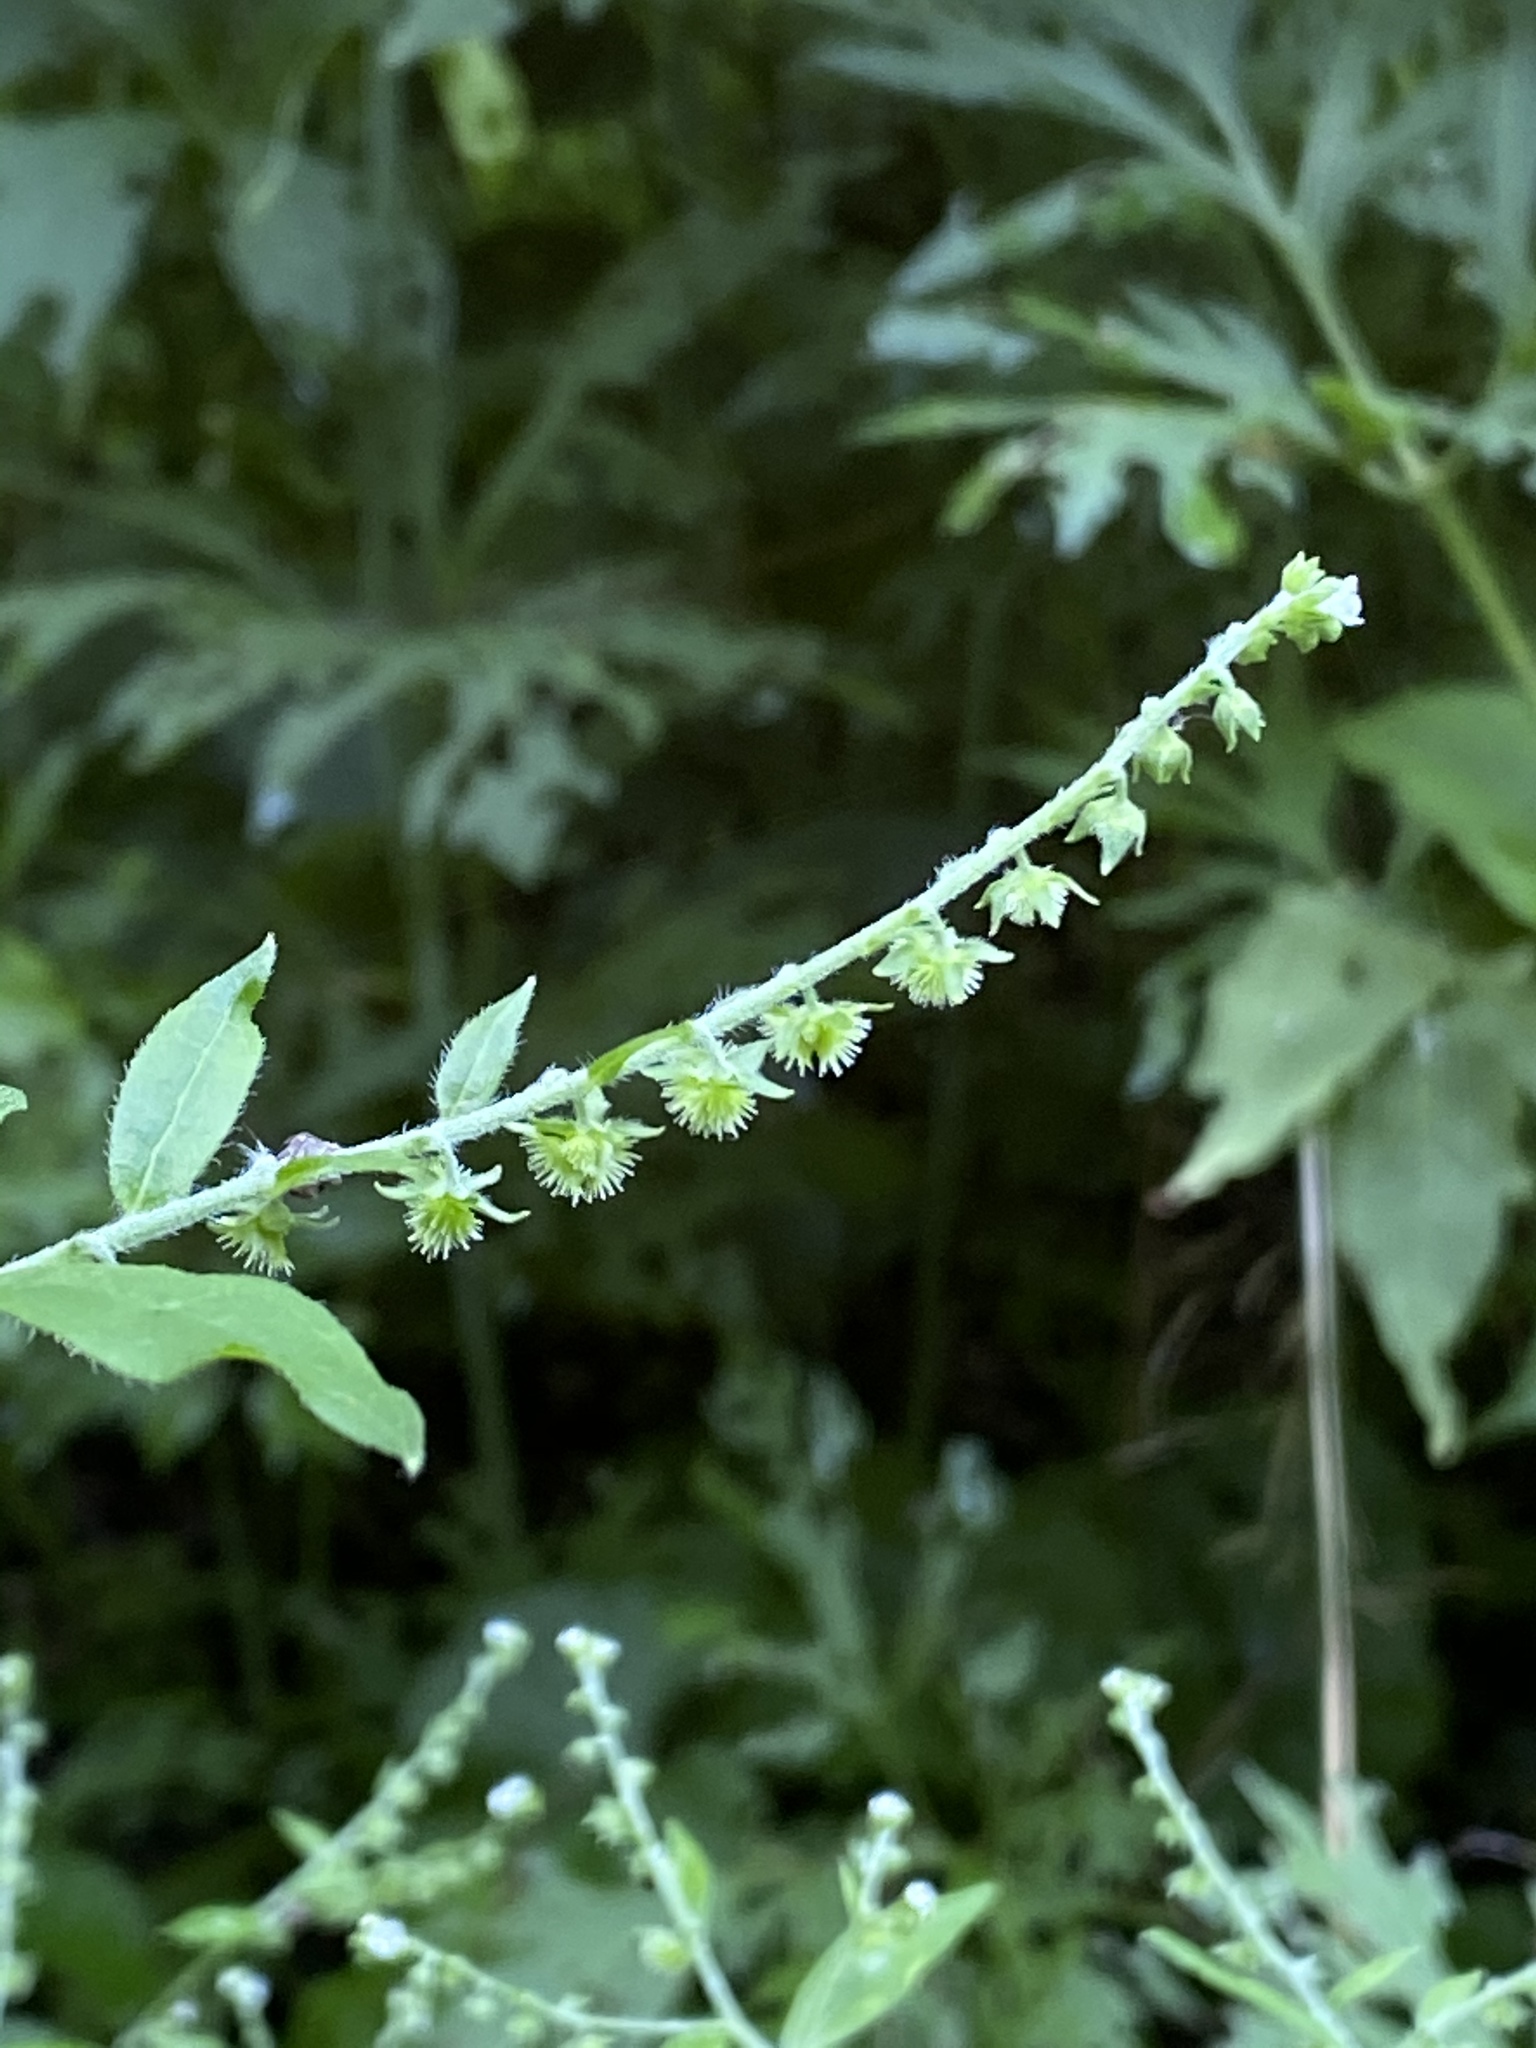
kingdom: Plantae
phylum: Tracheophyta
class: Magnoliopsida
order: Boraginales
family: Boraginaceae
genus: Hackelia
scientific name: Hackelia virginiana
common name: Beggar's-lice
